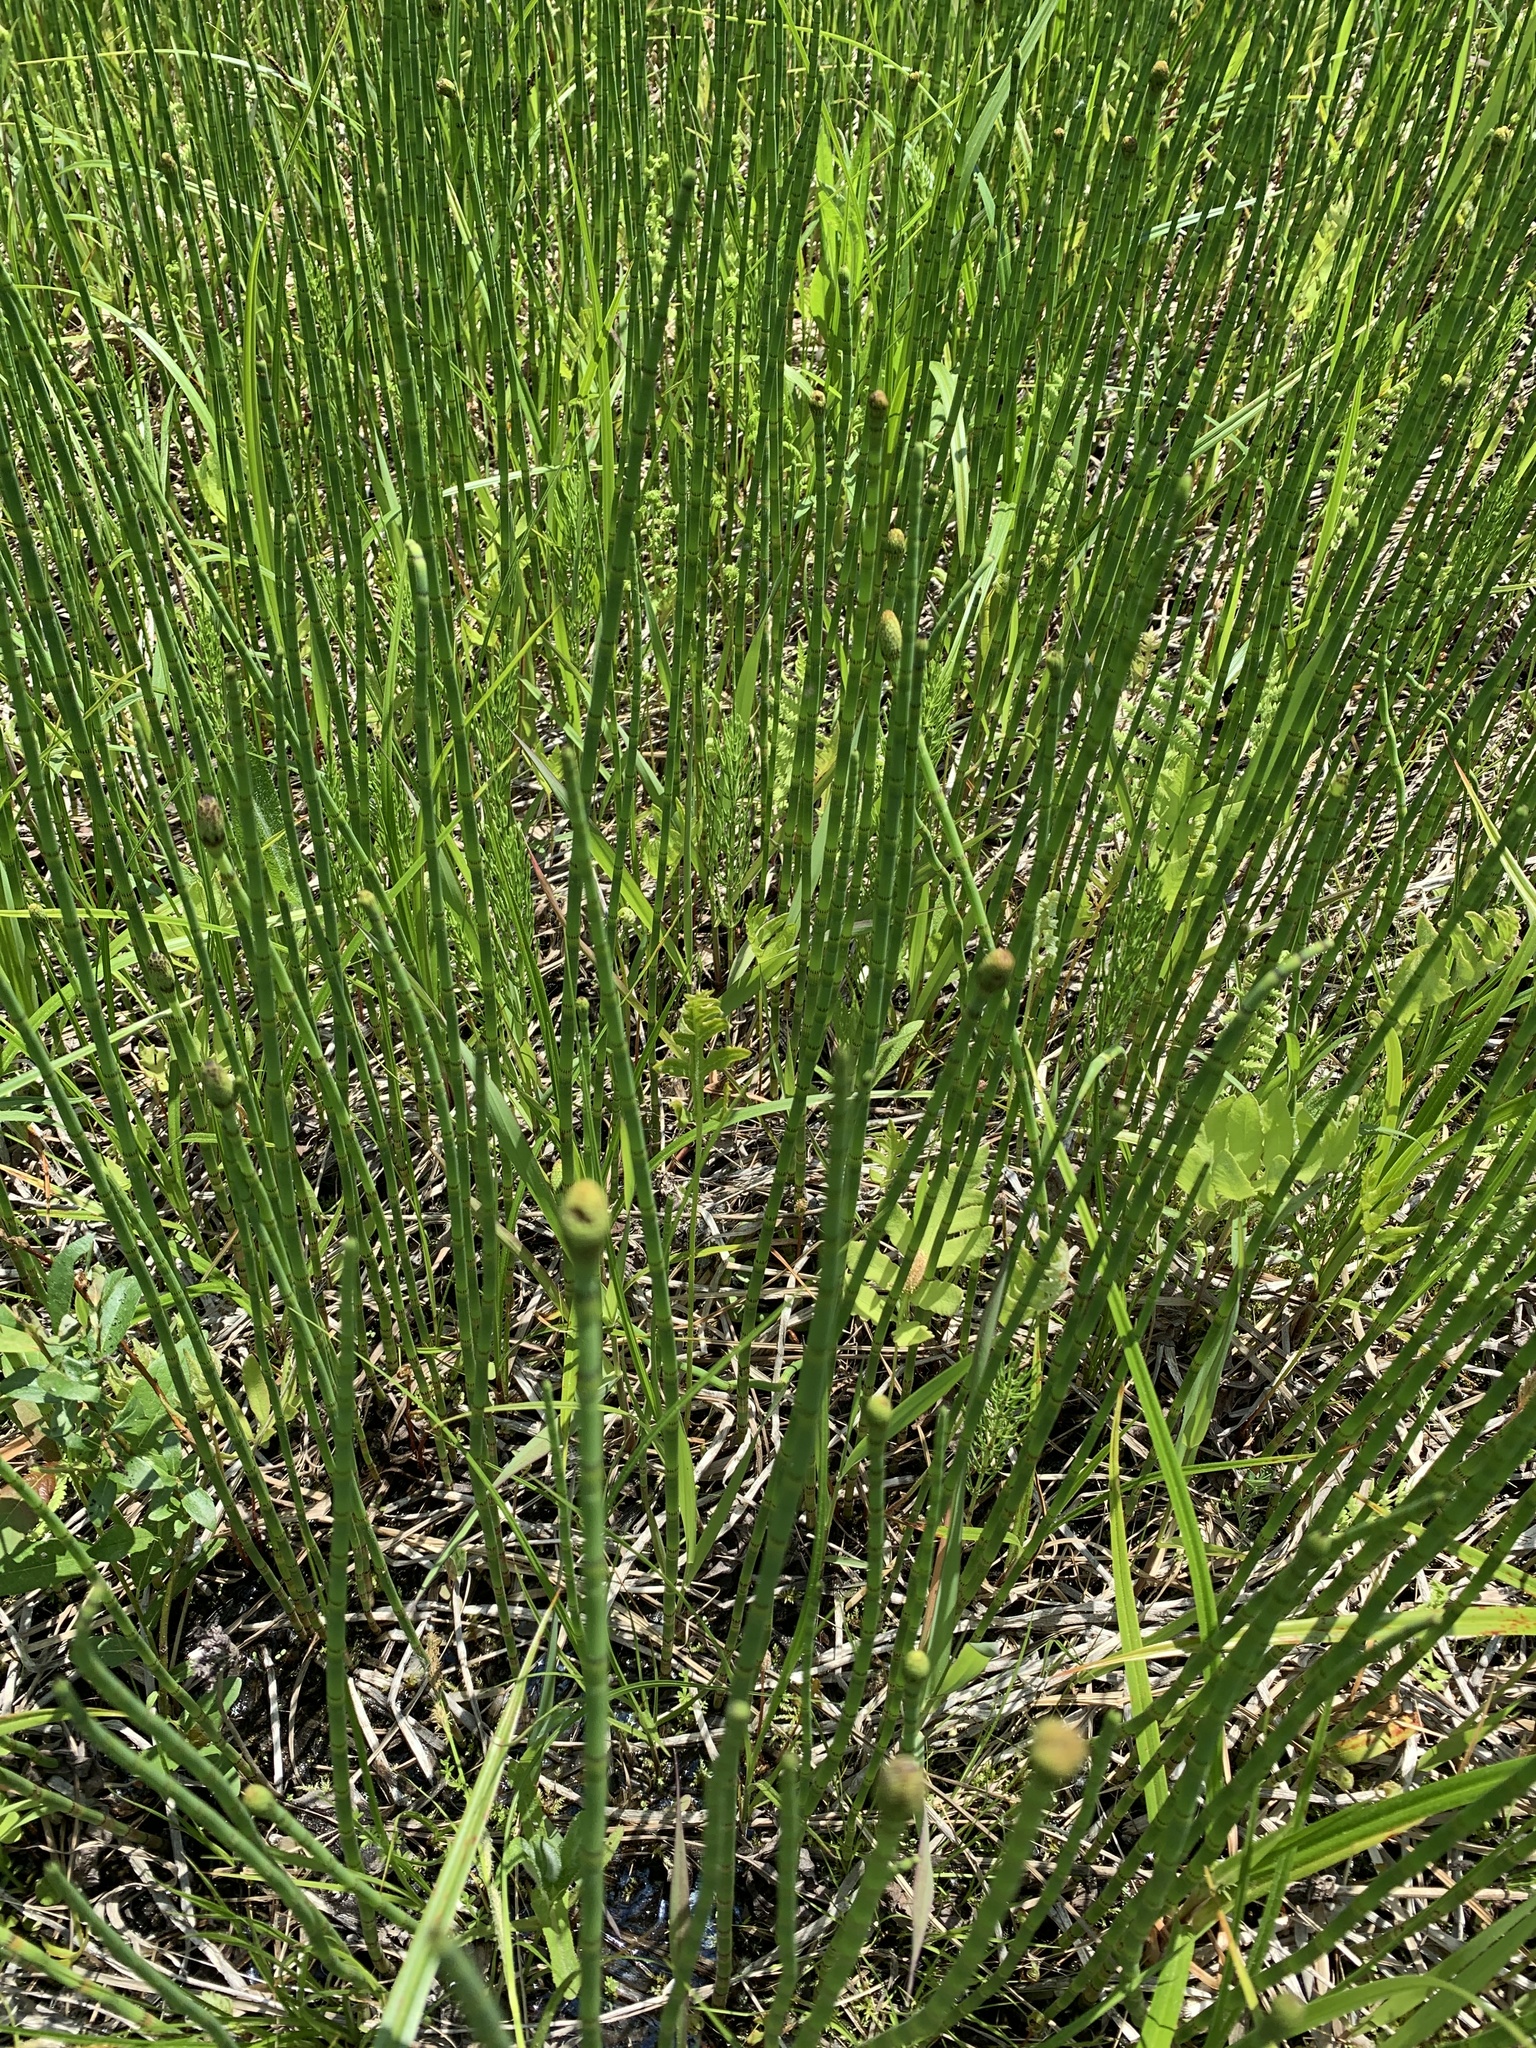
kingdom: Plantae
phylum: Tracheophyta
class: Polypodiopsida
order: Equisetales
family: Equisetaceae
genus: Equisetum
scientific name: Equisetum fluviatile
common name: Water horsetail
